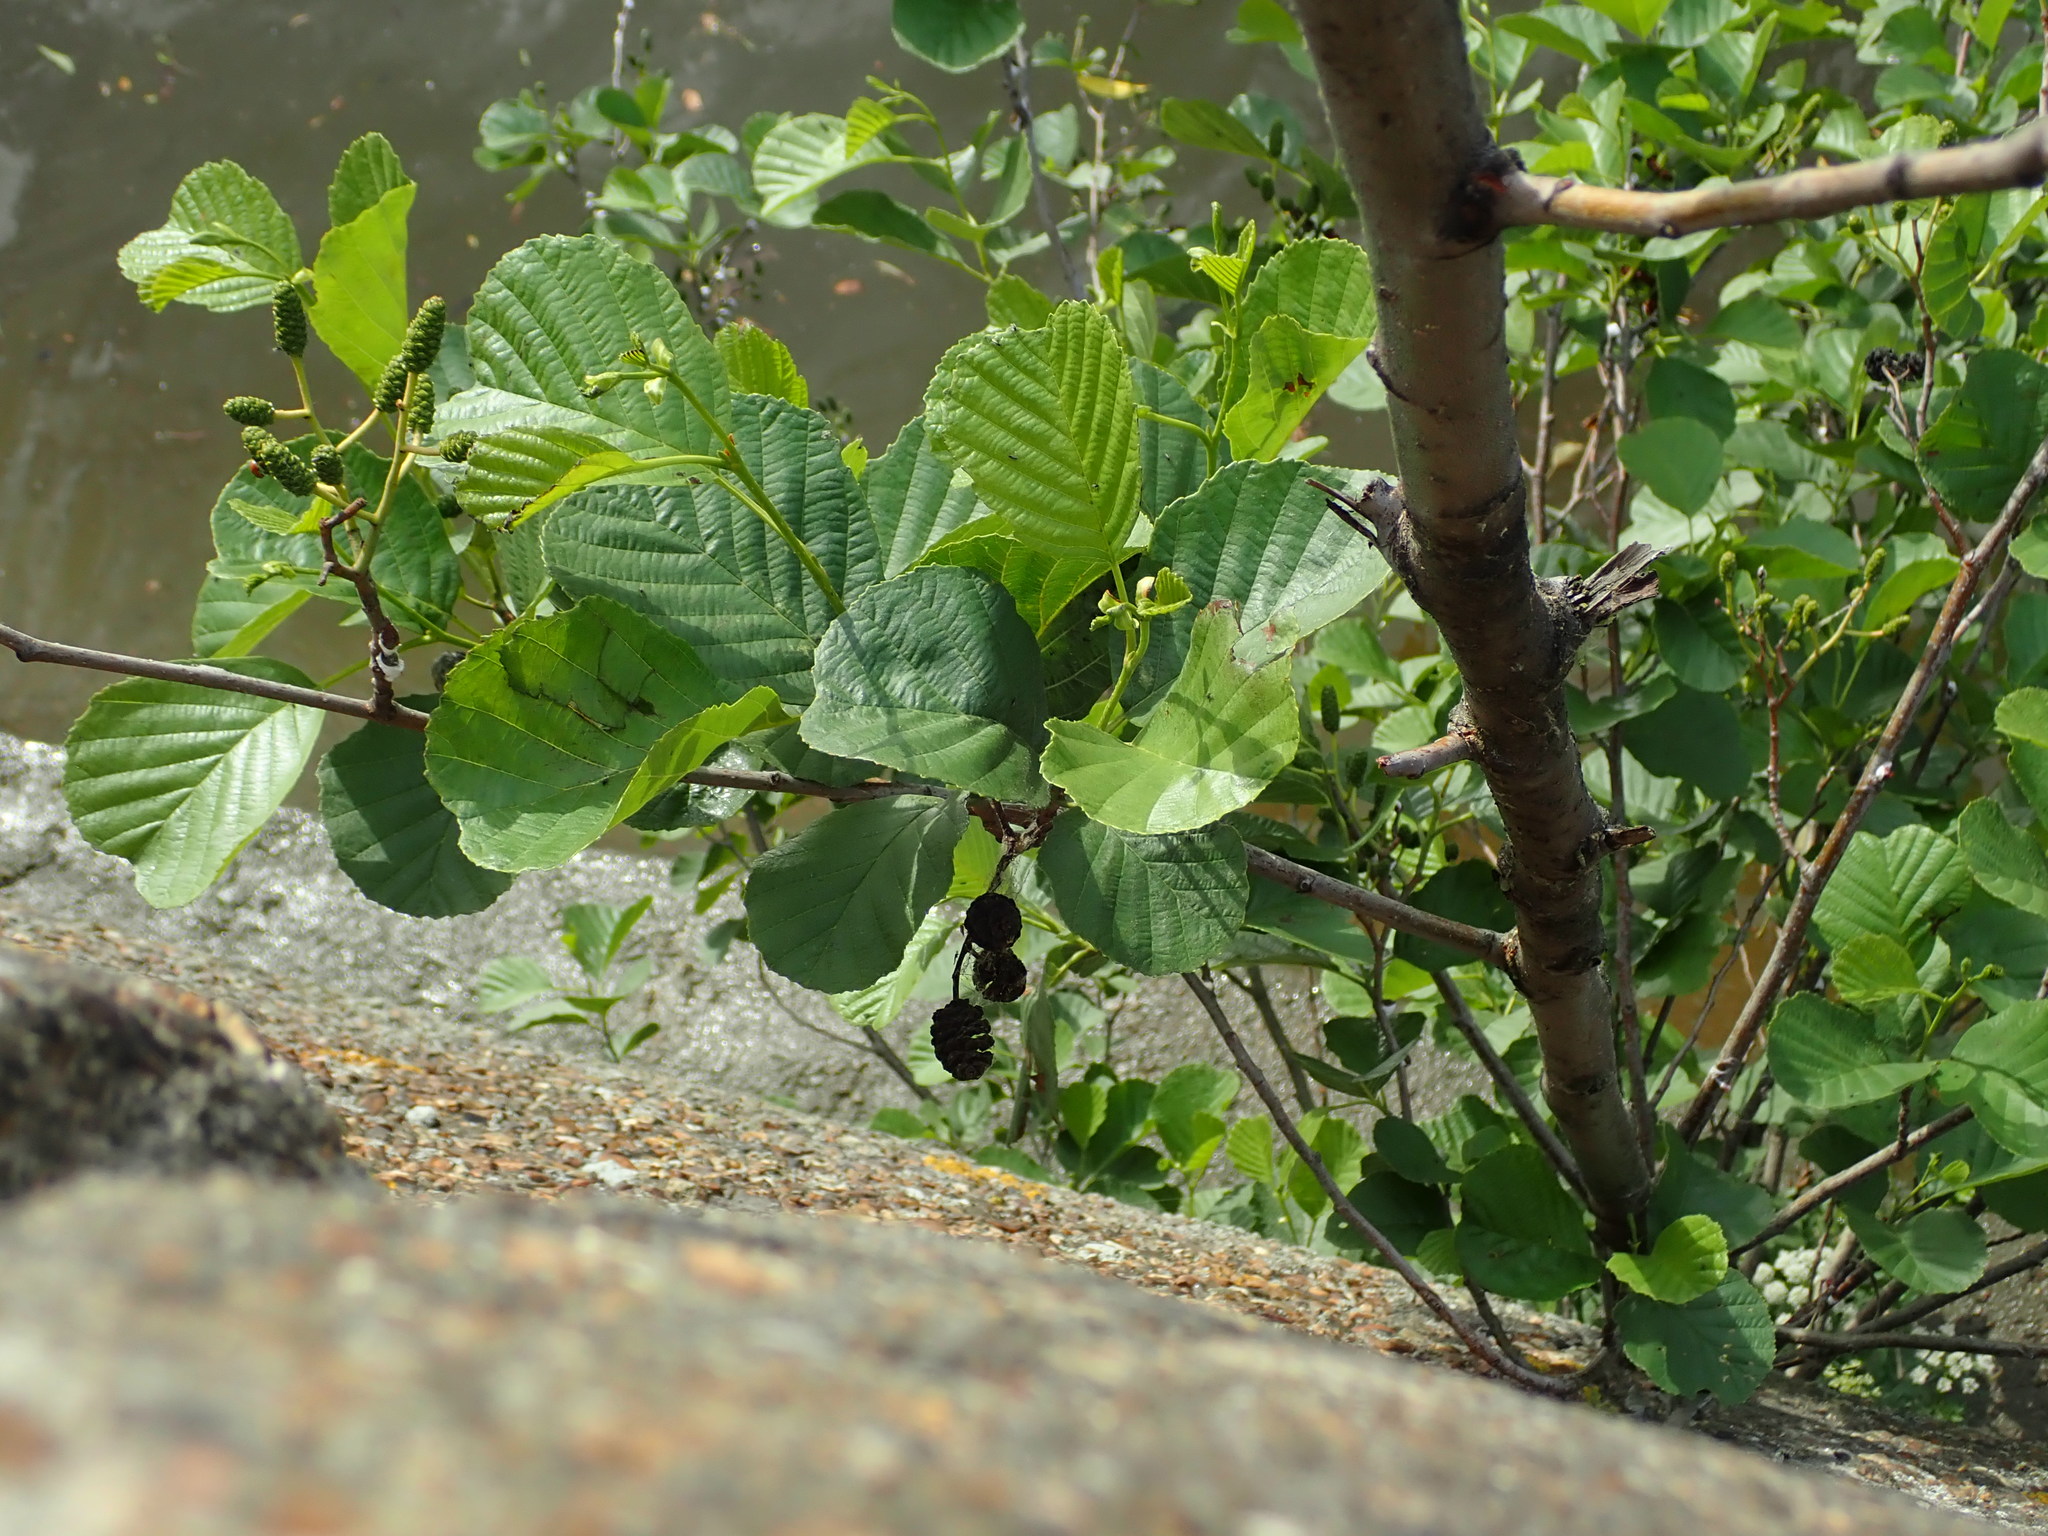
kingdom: Plantae
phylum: Tracheophyta
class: Magnoliopsida
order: Fagales
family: Betulaceae
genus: Alnus
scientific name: Alnus glutinosa
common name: Black alder
